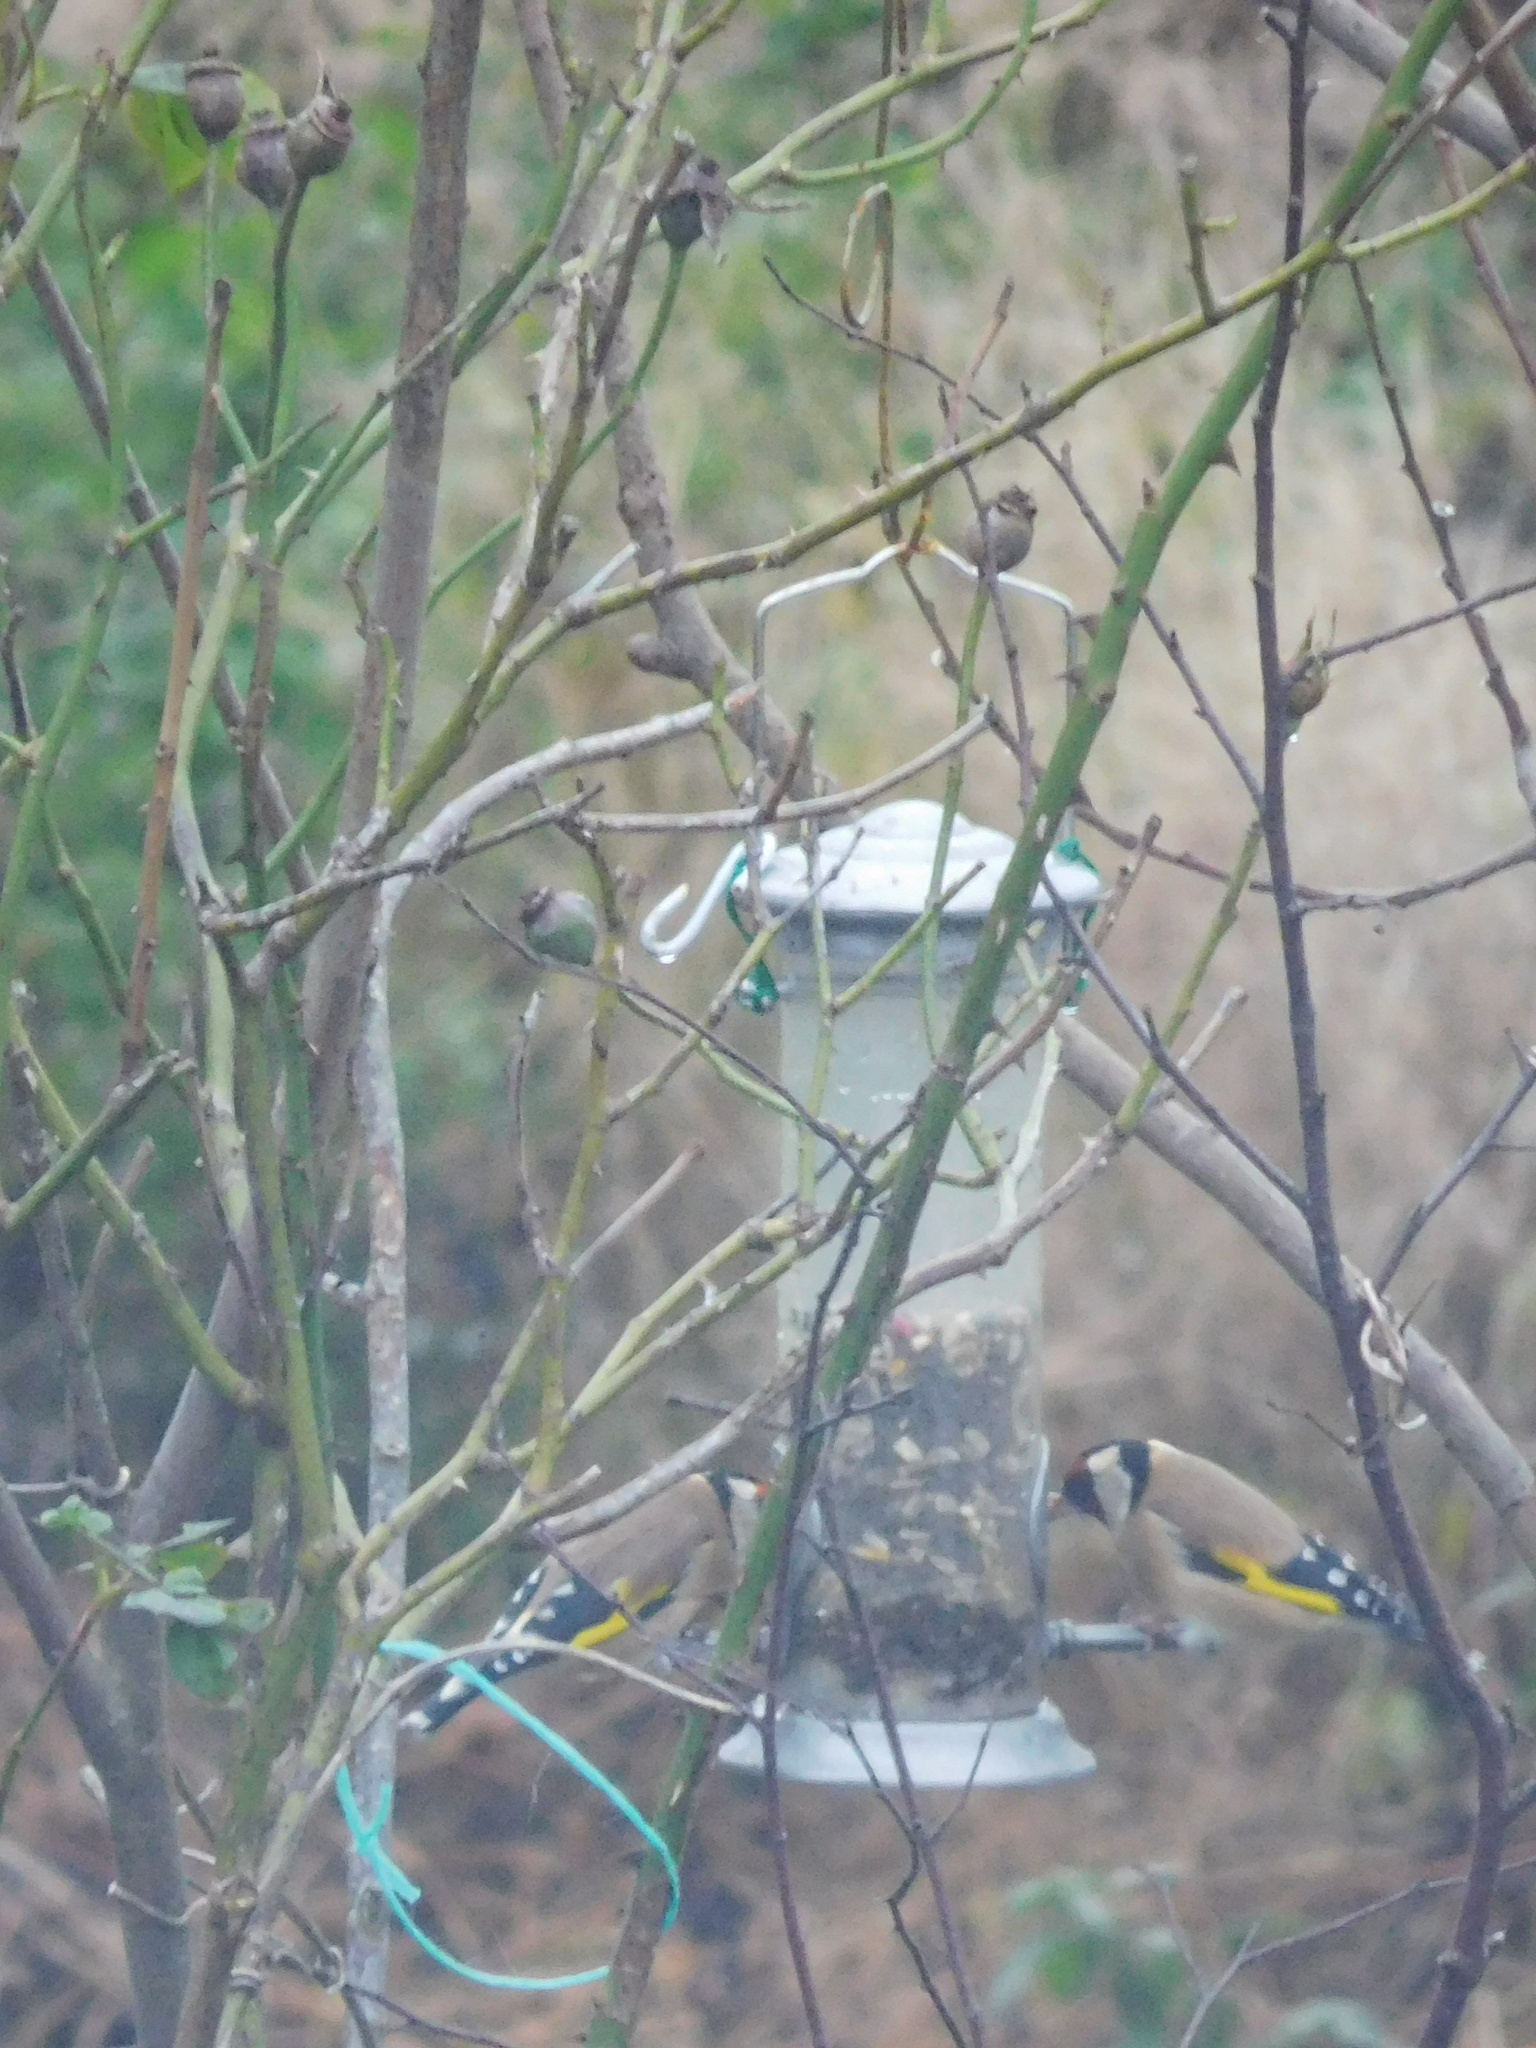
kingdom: Animalia
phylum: Chordata
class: Aves
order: Passeriformes
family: Fringillidae
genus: Carduelis
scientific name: Carduelis carduelis
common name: European goldfinch
